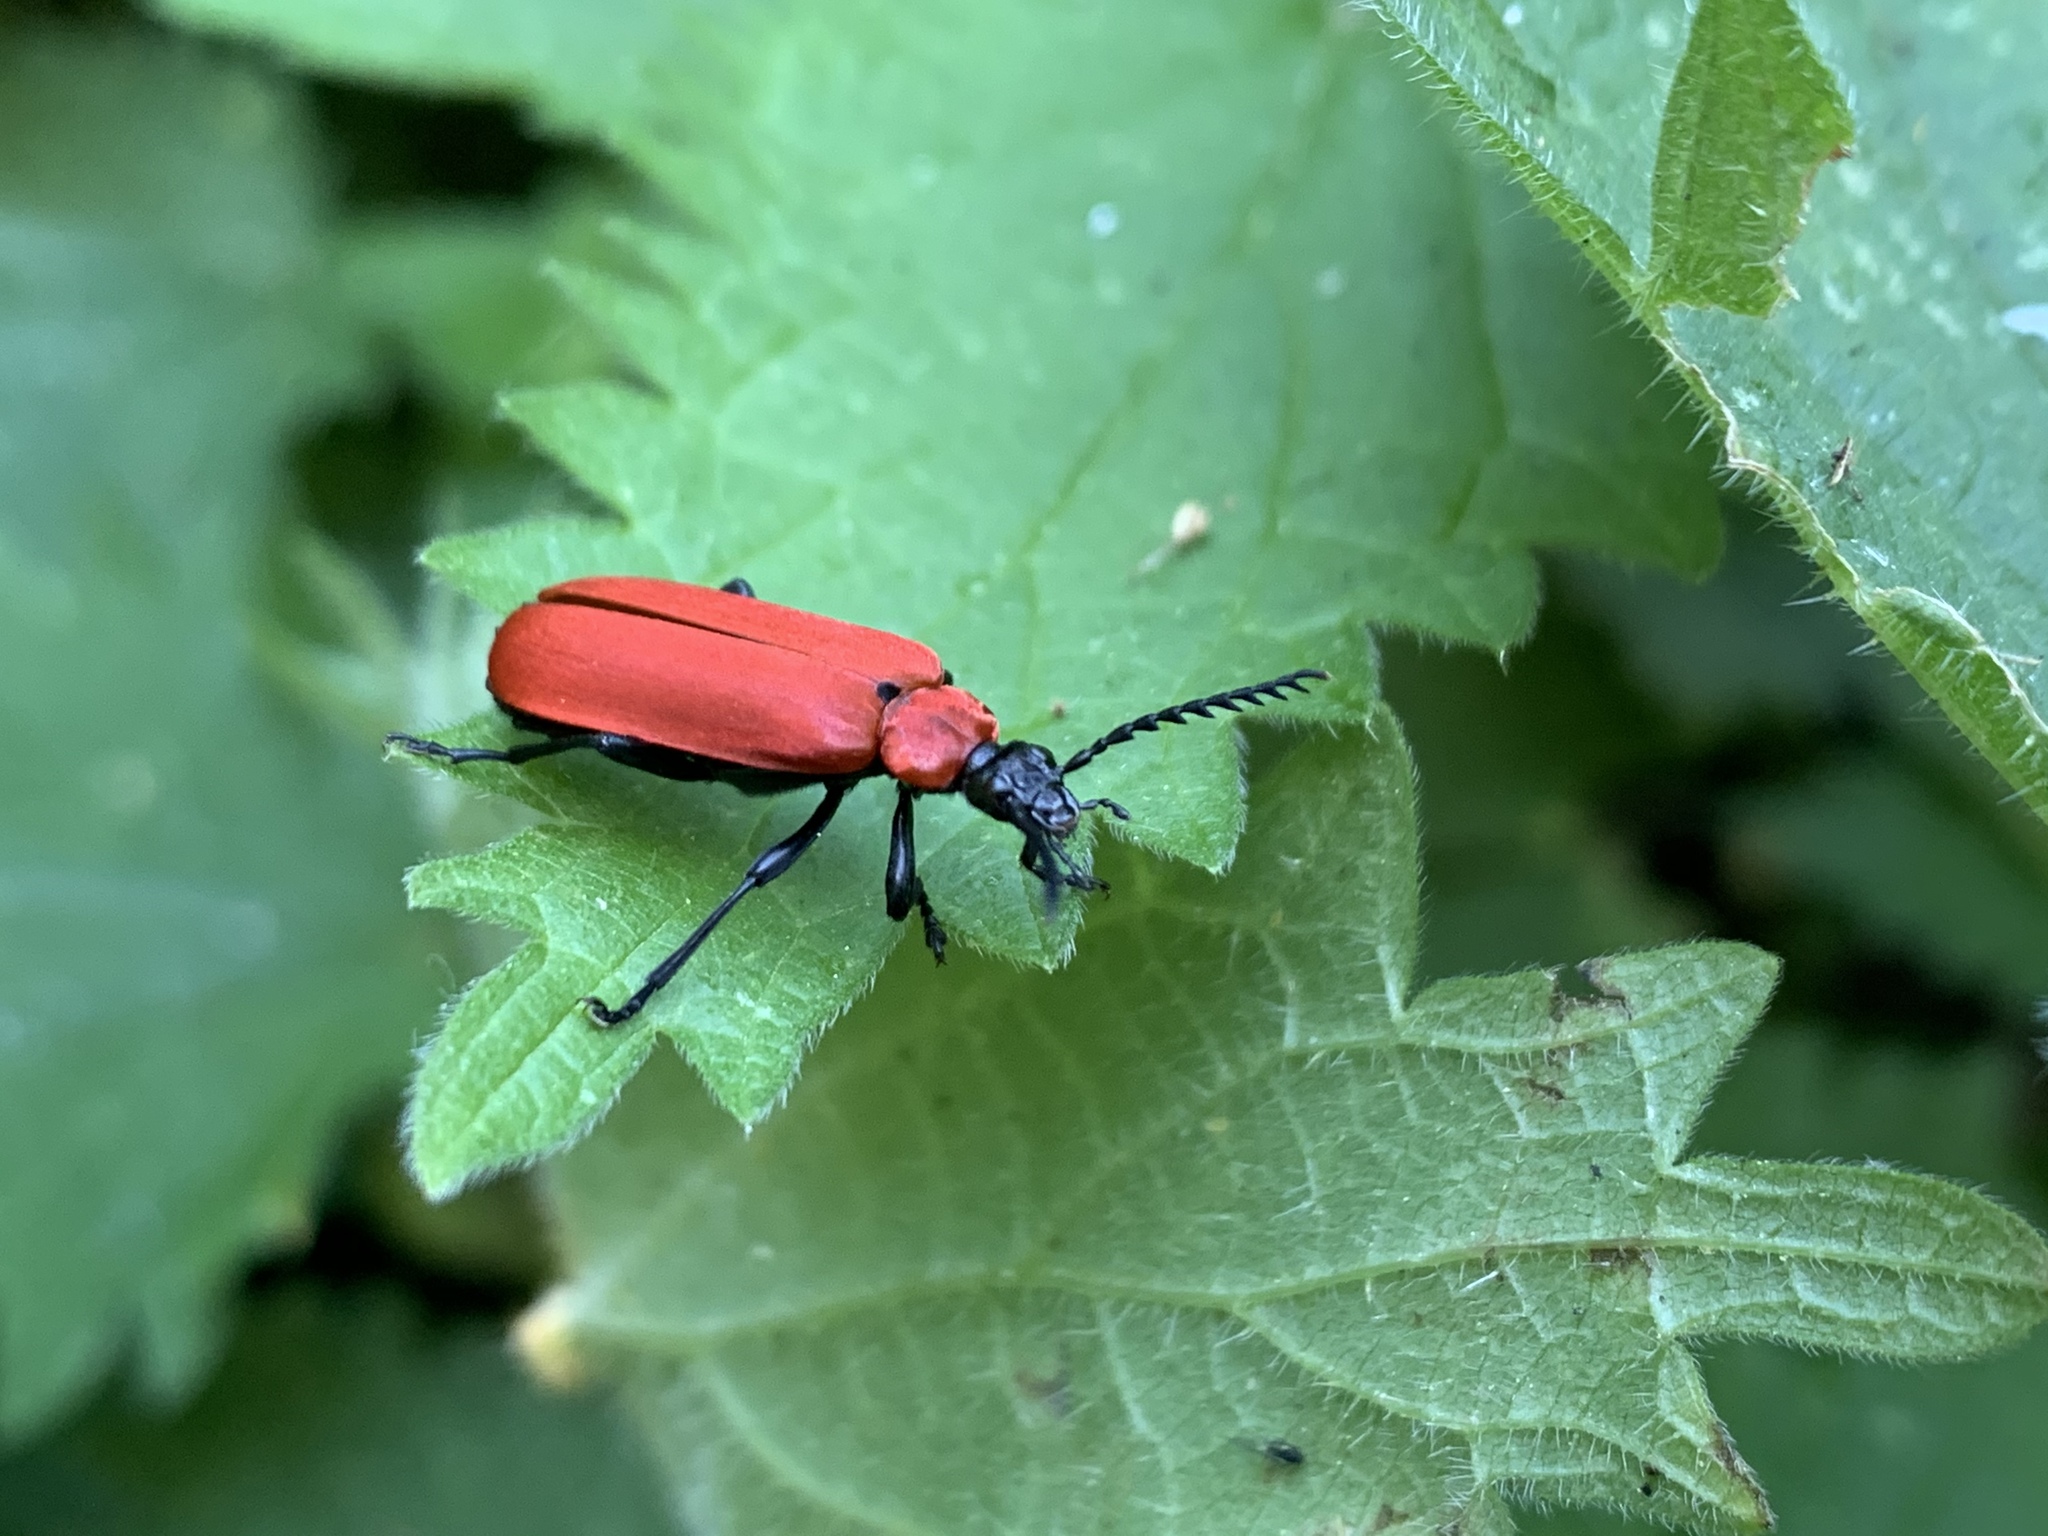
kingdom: Animalia
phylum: Arthropoda
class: Insecta
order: Coleoptera
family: Pyrochroidae
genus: Pyrochroa
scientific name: Pyrochroa coccinea
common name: Black-headed cardinal beetle
